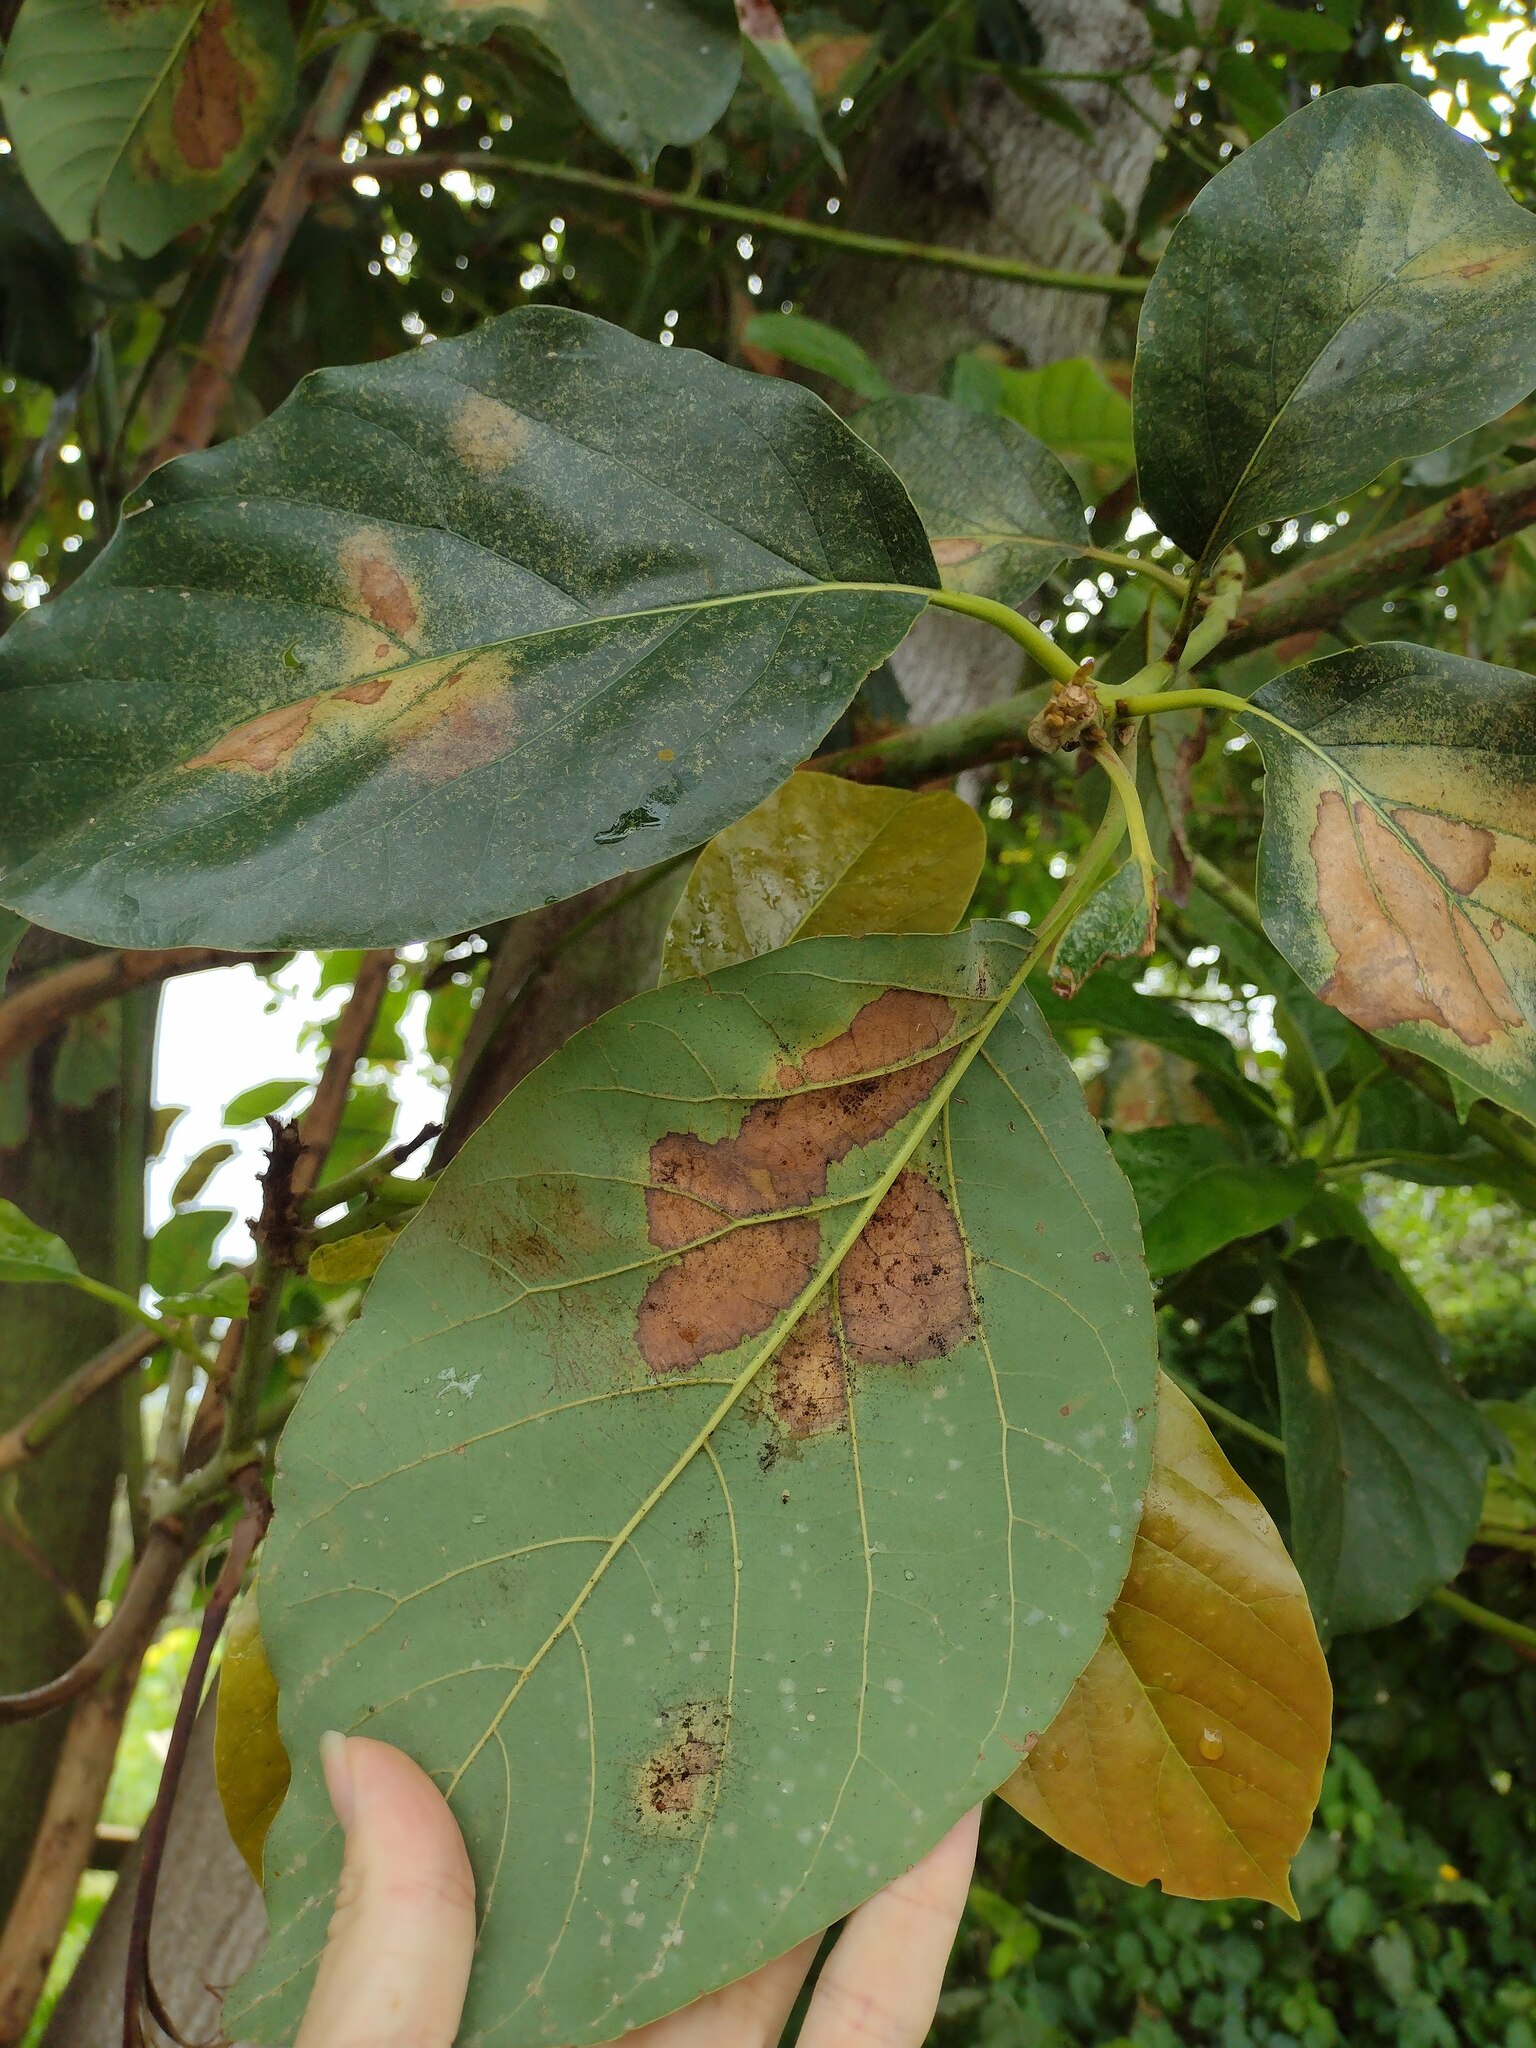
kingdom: Plantae
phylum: Tracheophyta
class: Magnoliopsida
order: Laurales
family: Lauraceae
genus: Persea
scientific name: Persea americana
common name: Avocado
